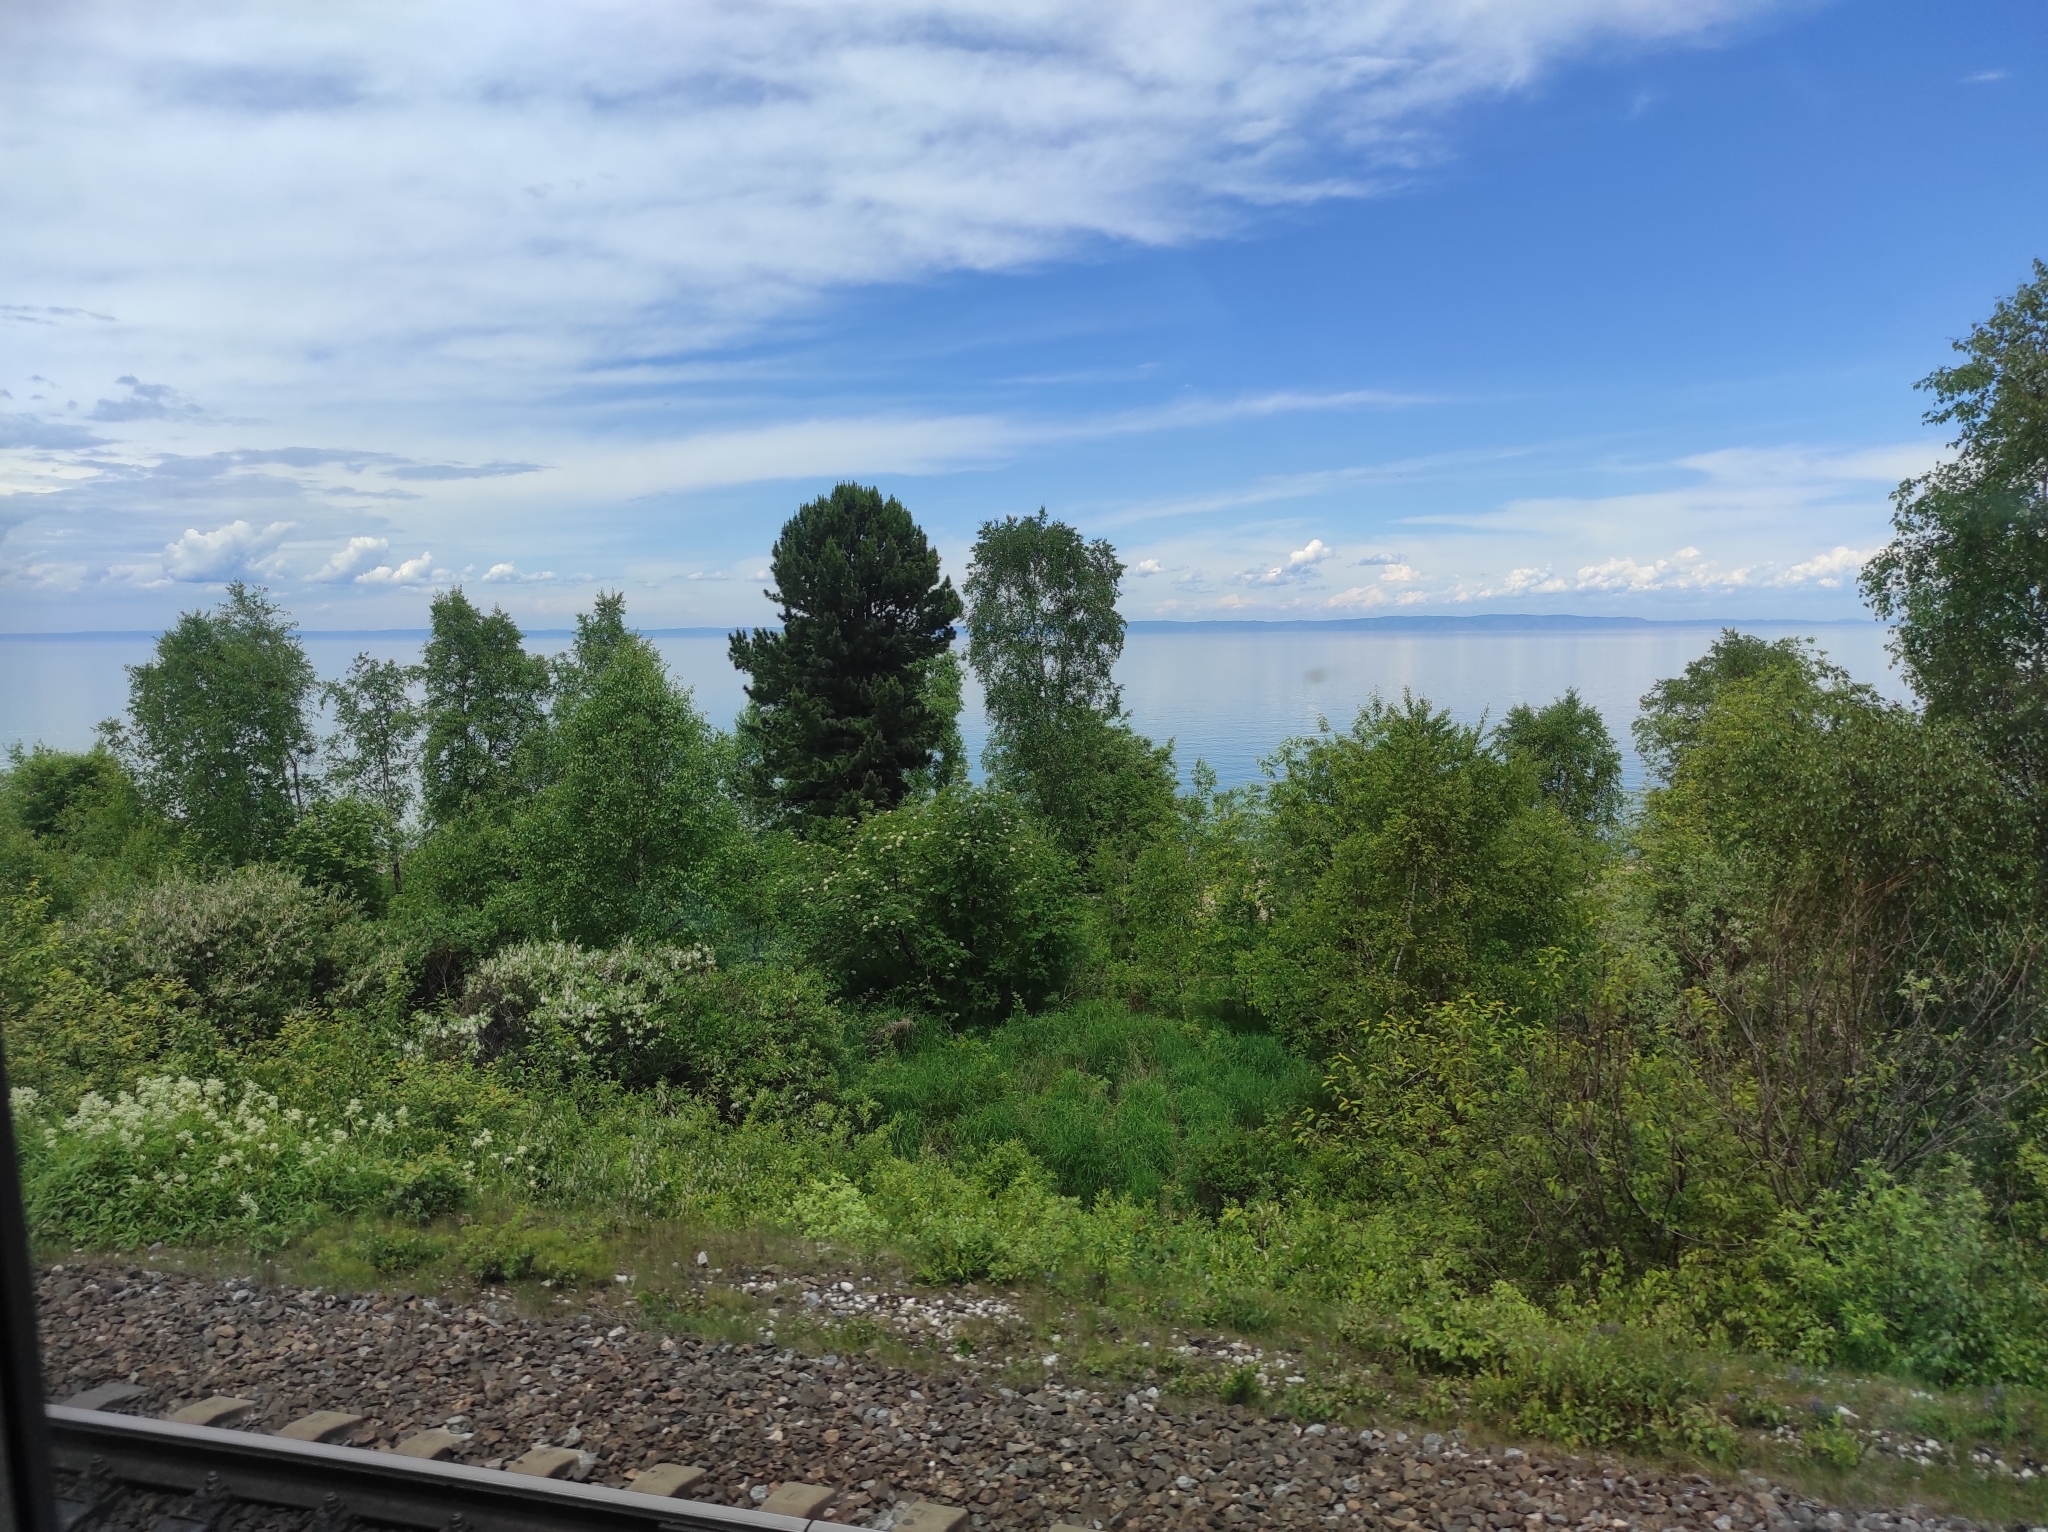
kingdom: Plantae
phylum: Tracheophyta
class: Pinopsida
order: Pinales
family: Pinaceae
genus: Pinus
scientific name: Pinus sibirica
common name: Siberian pine
